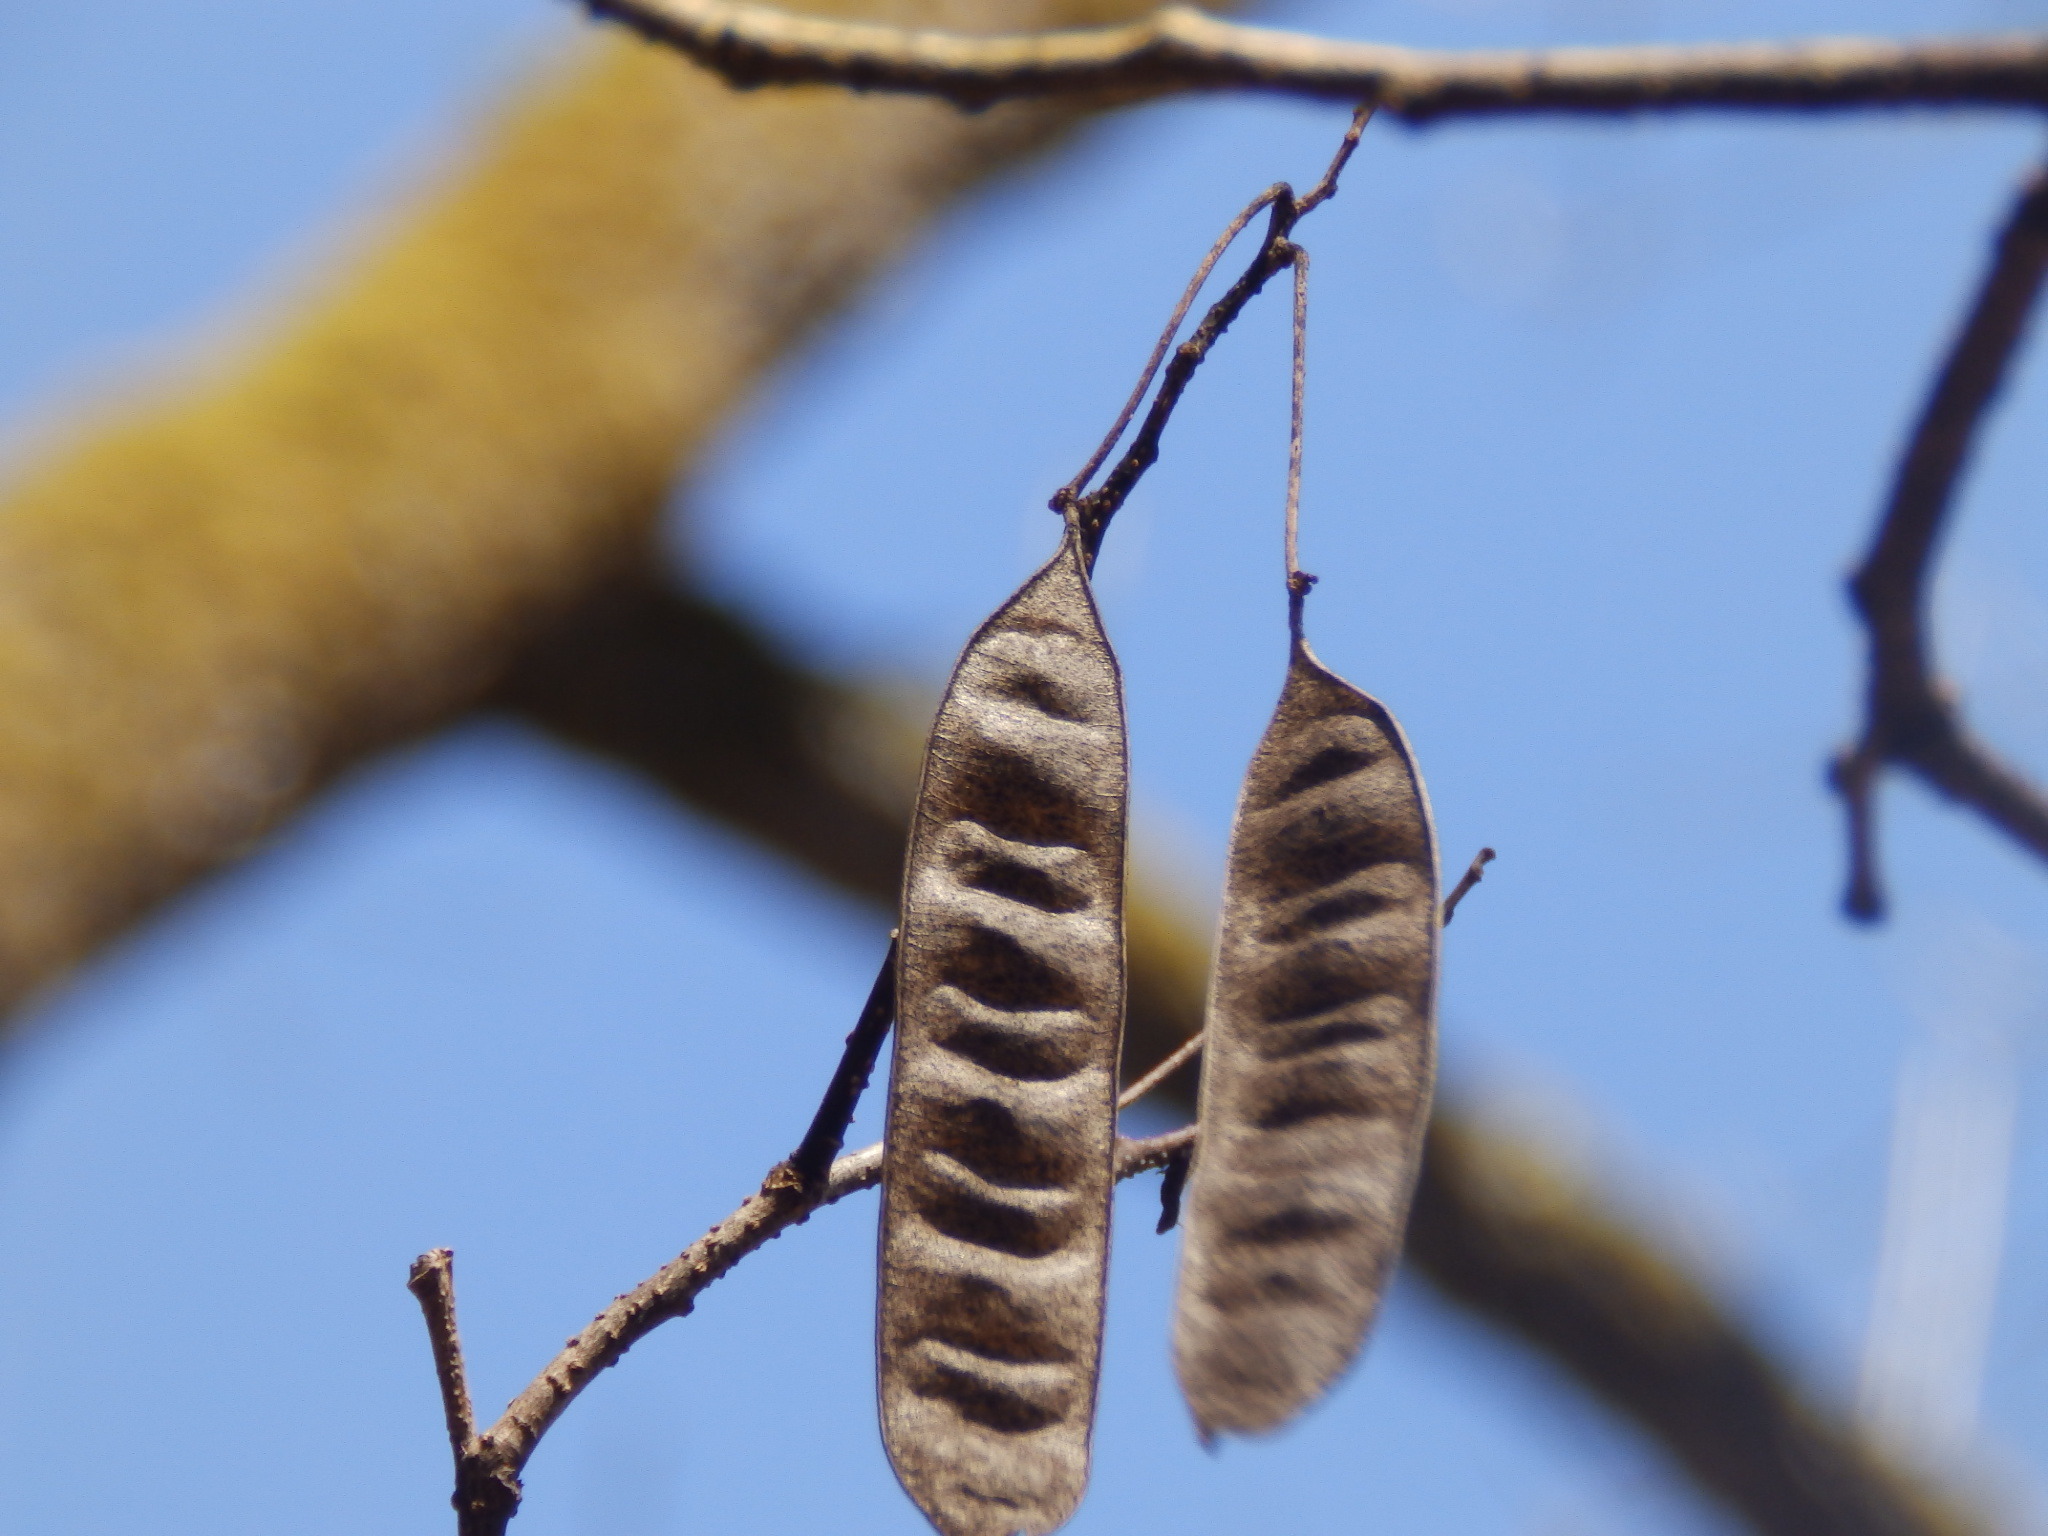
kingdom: Plantae
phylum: Tracheophyta
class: Magnoliopsida
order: Fabales
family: Fabaceae
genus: Albizia
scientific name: Albizia julibrissin
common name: Silktree
